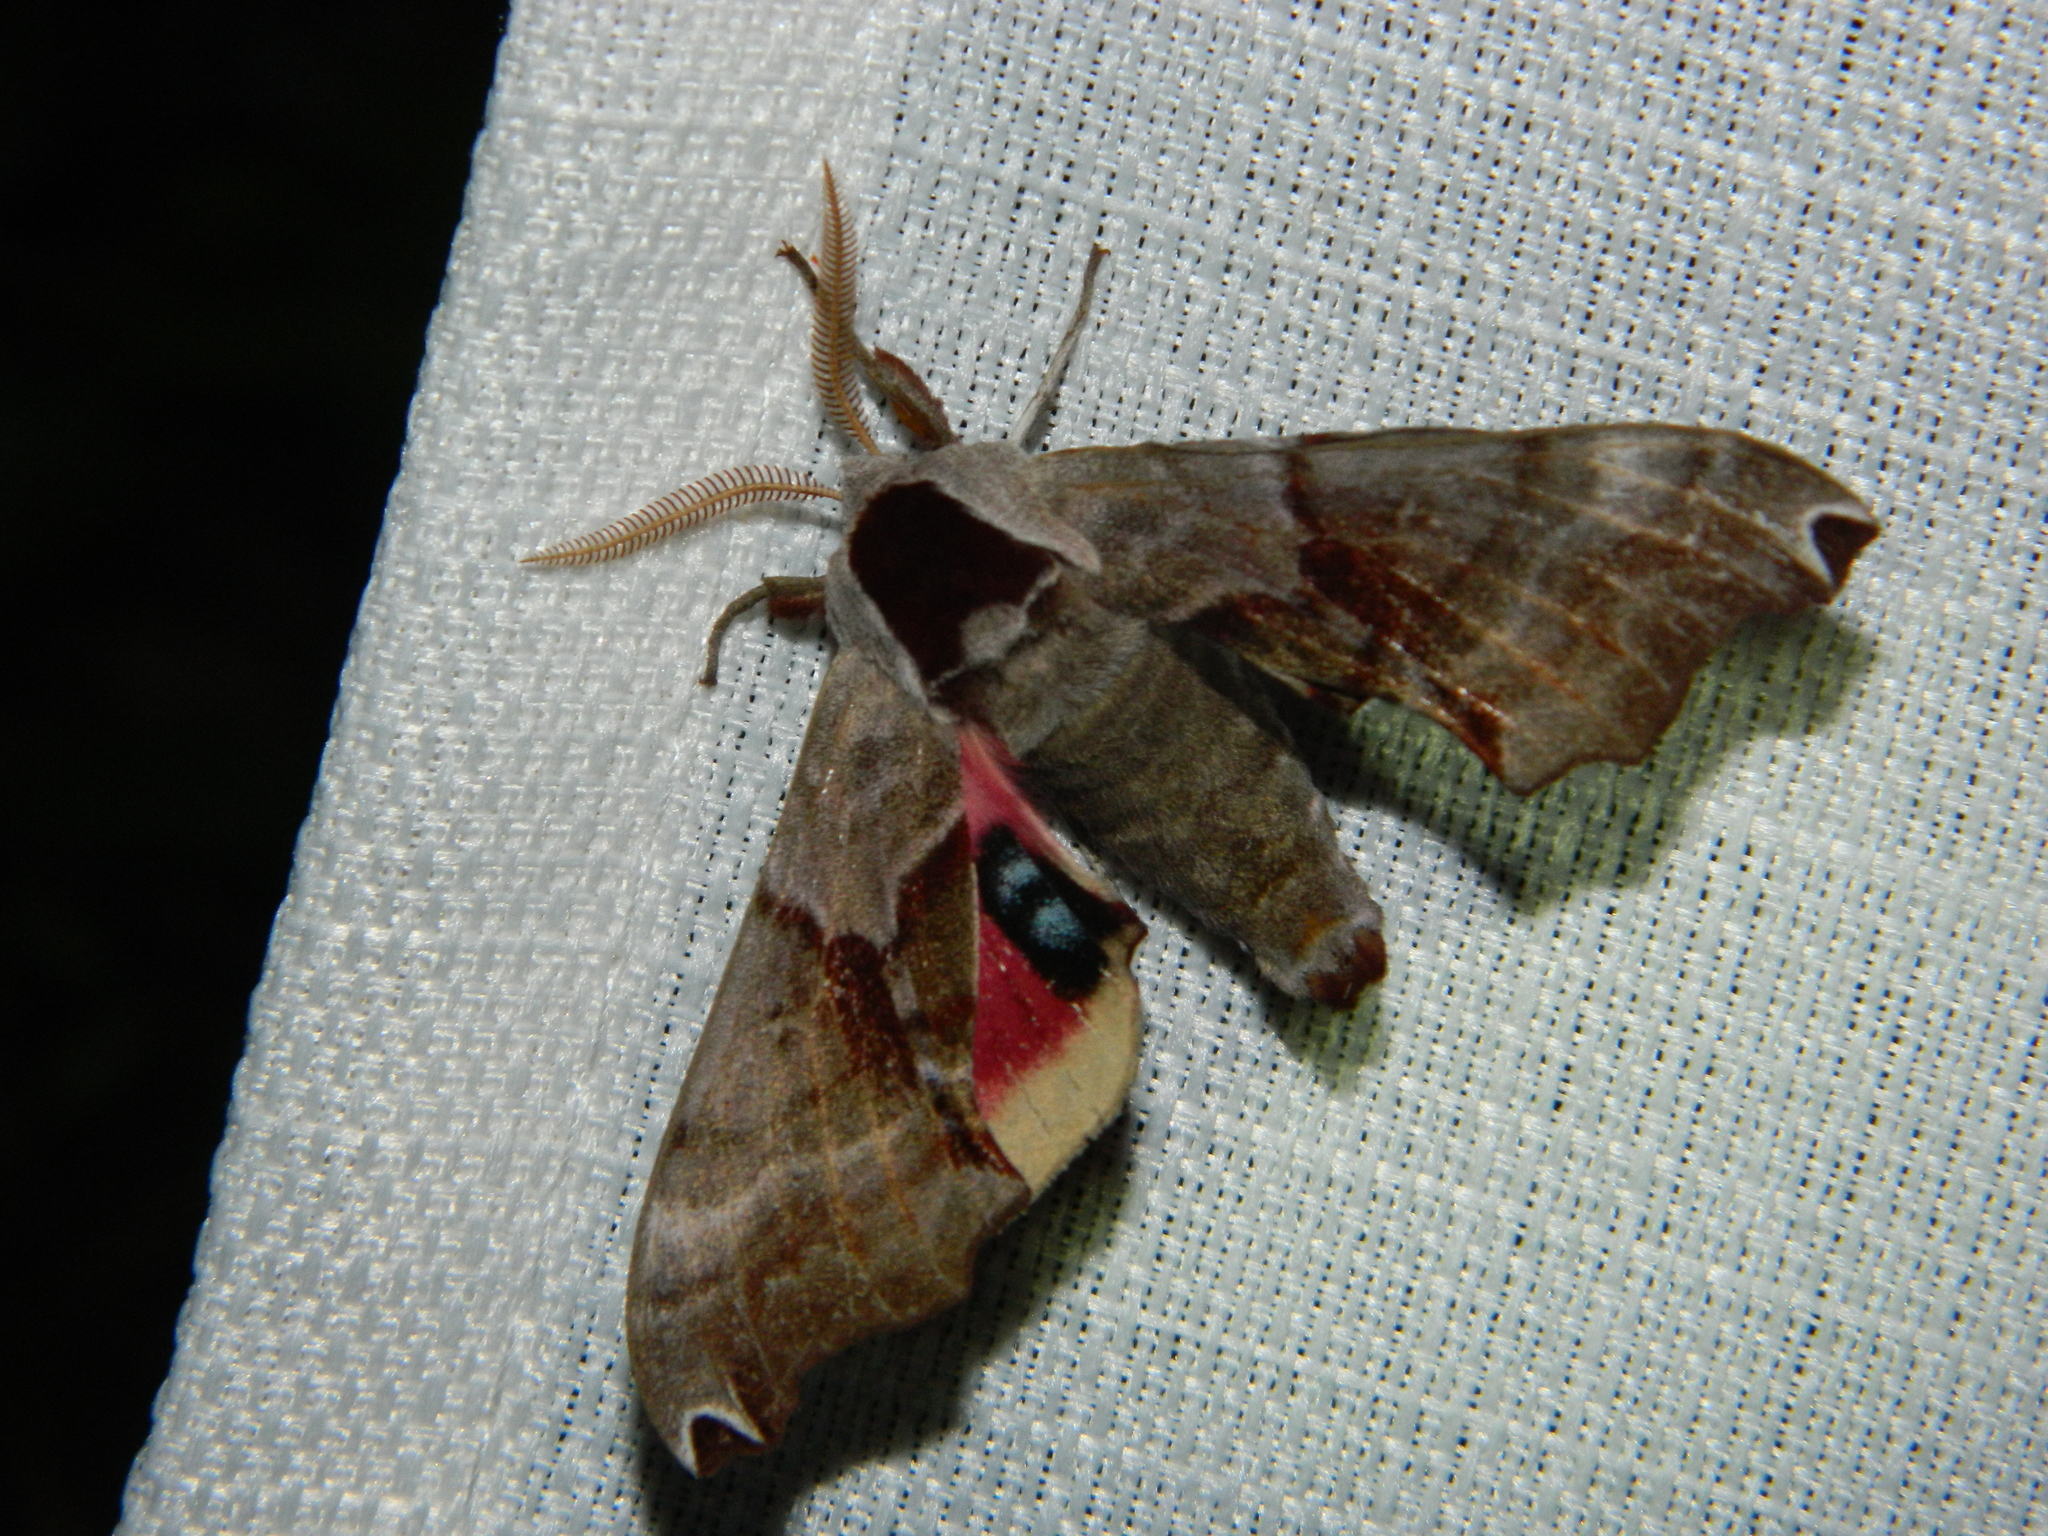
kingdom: Animalia
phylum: Arthropoda
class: Insecta
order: Lepidoptera
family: Sphingidae
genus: Smerinthus
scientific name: Smerinthus jamaicensis
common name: Twin spotted sphinx
